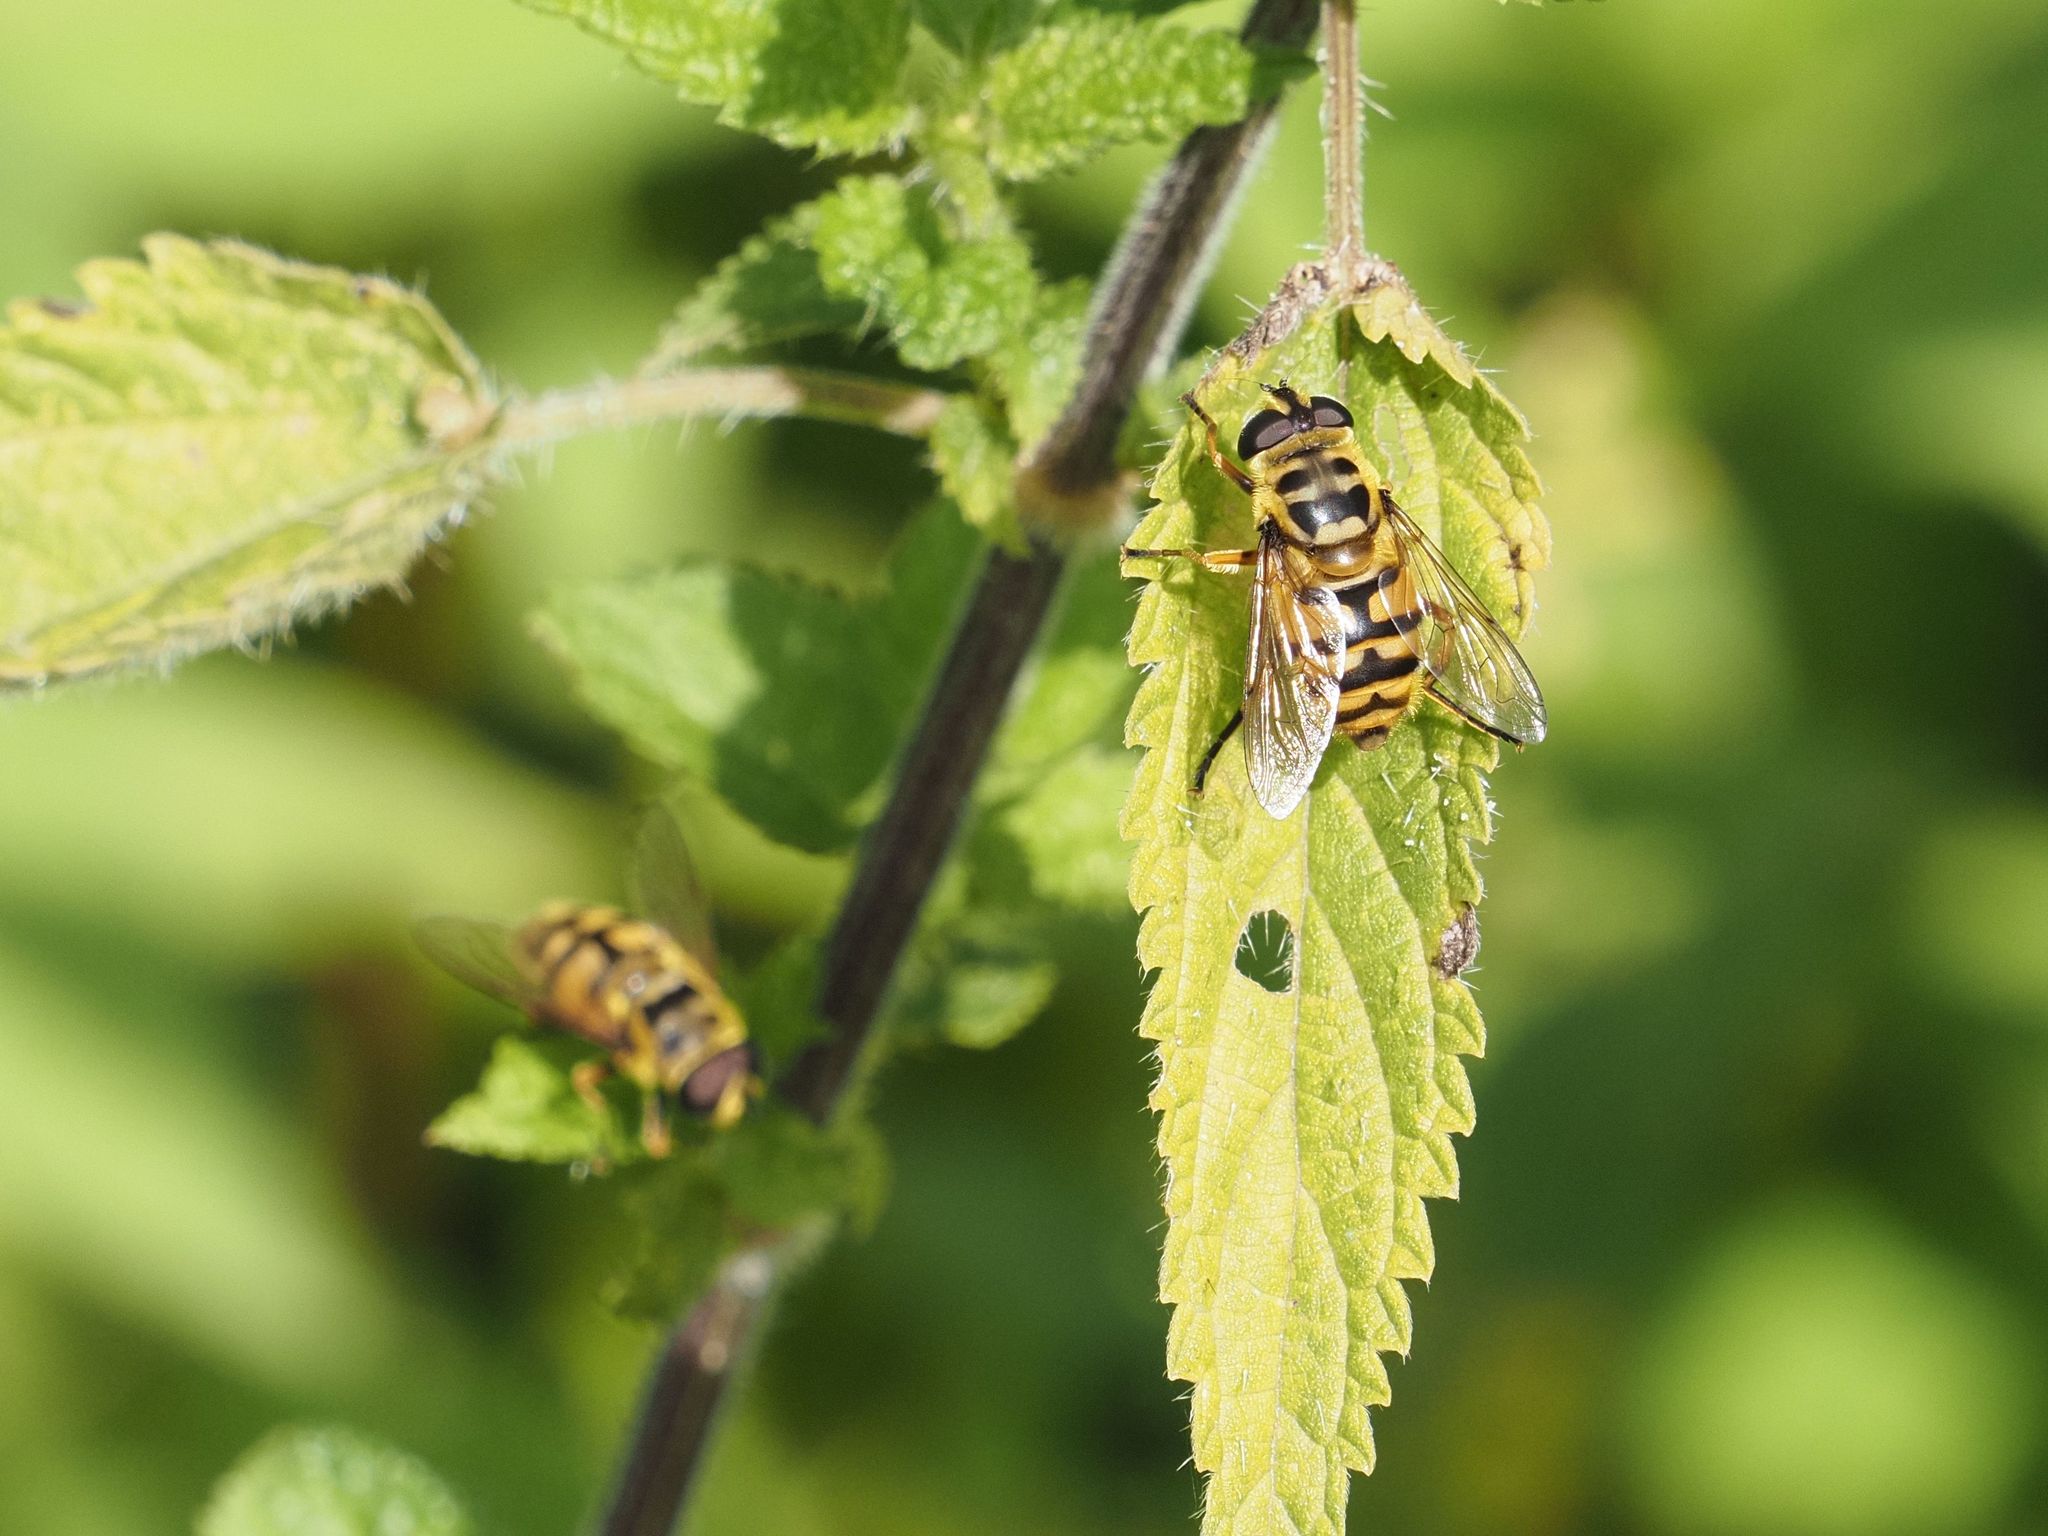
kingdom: Animalia
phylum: Arthropoda
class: Insecta
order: Diptera
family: Syrphidae
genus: Myathropa
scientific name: Myathropa florea
